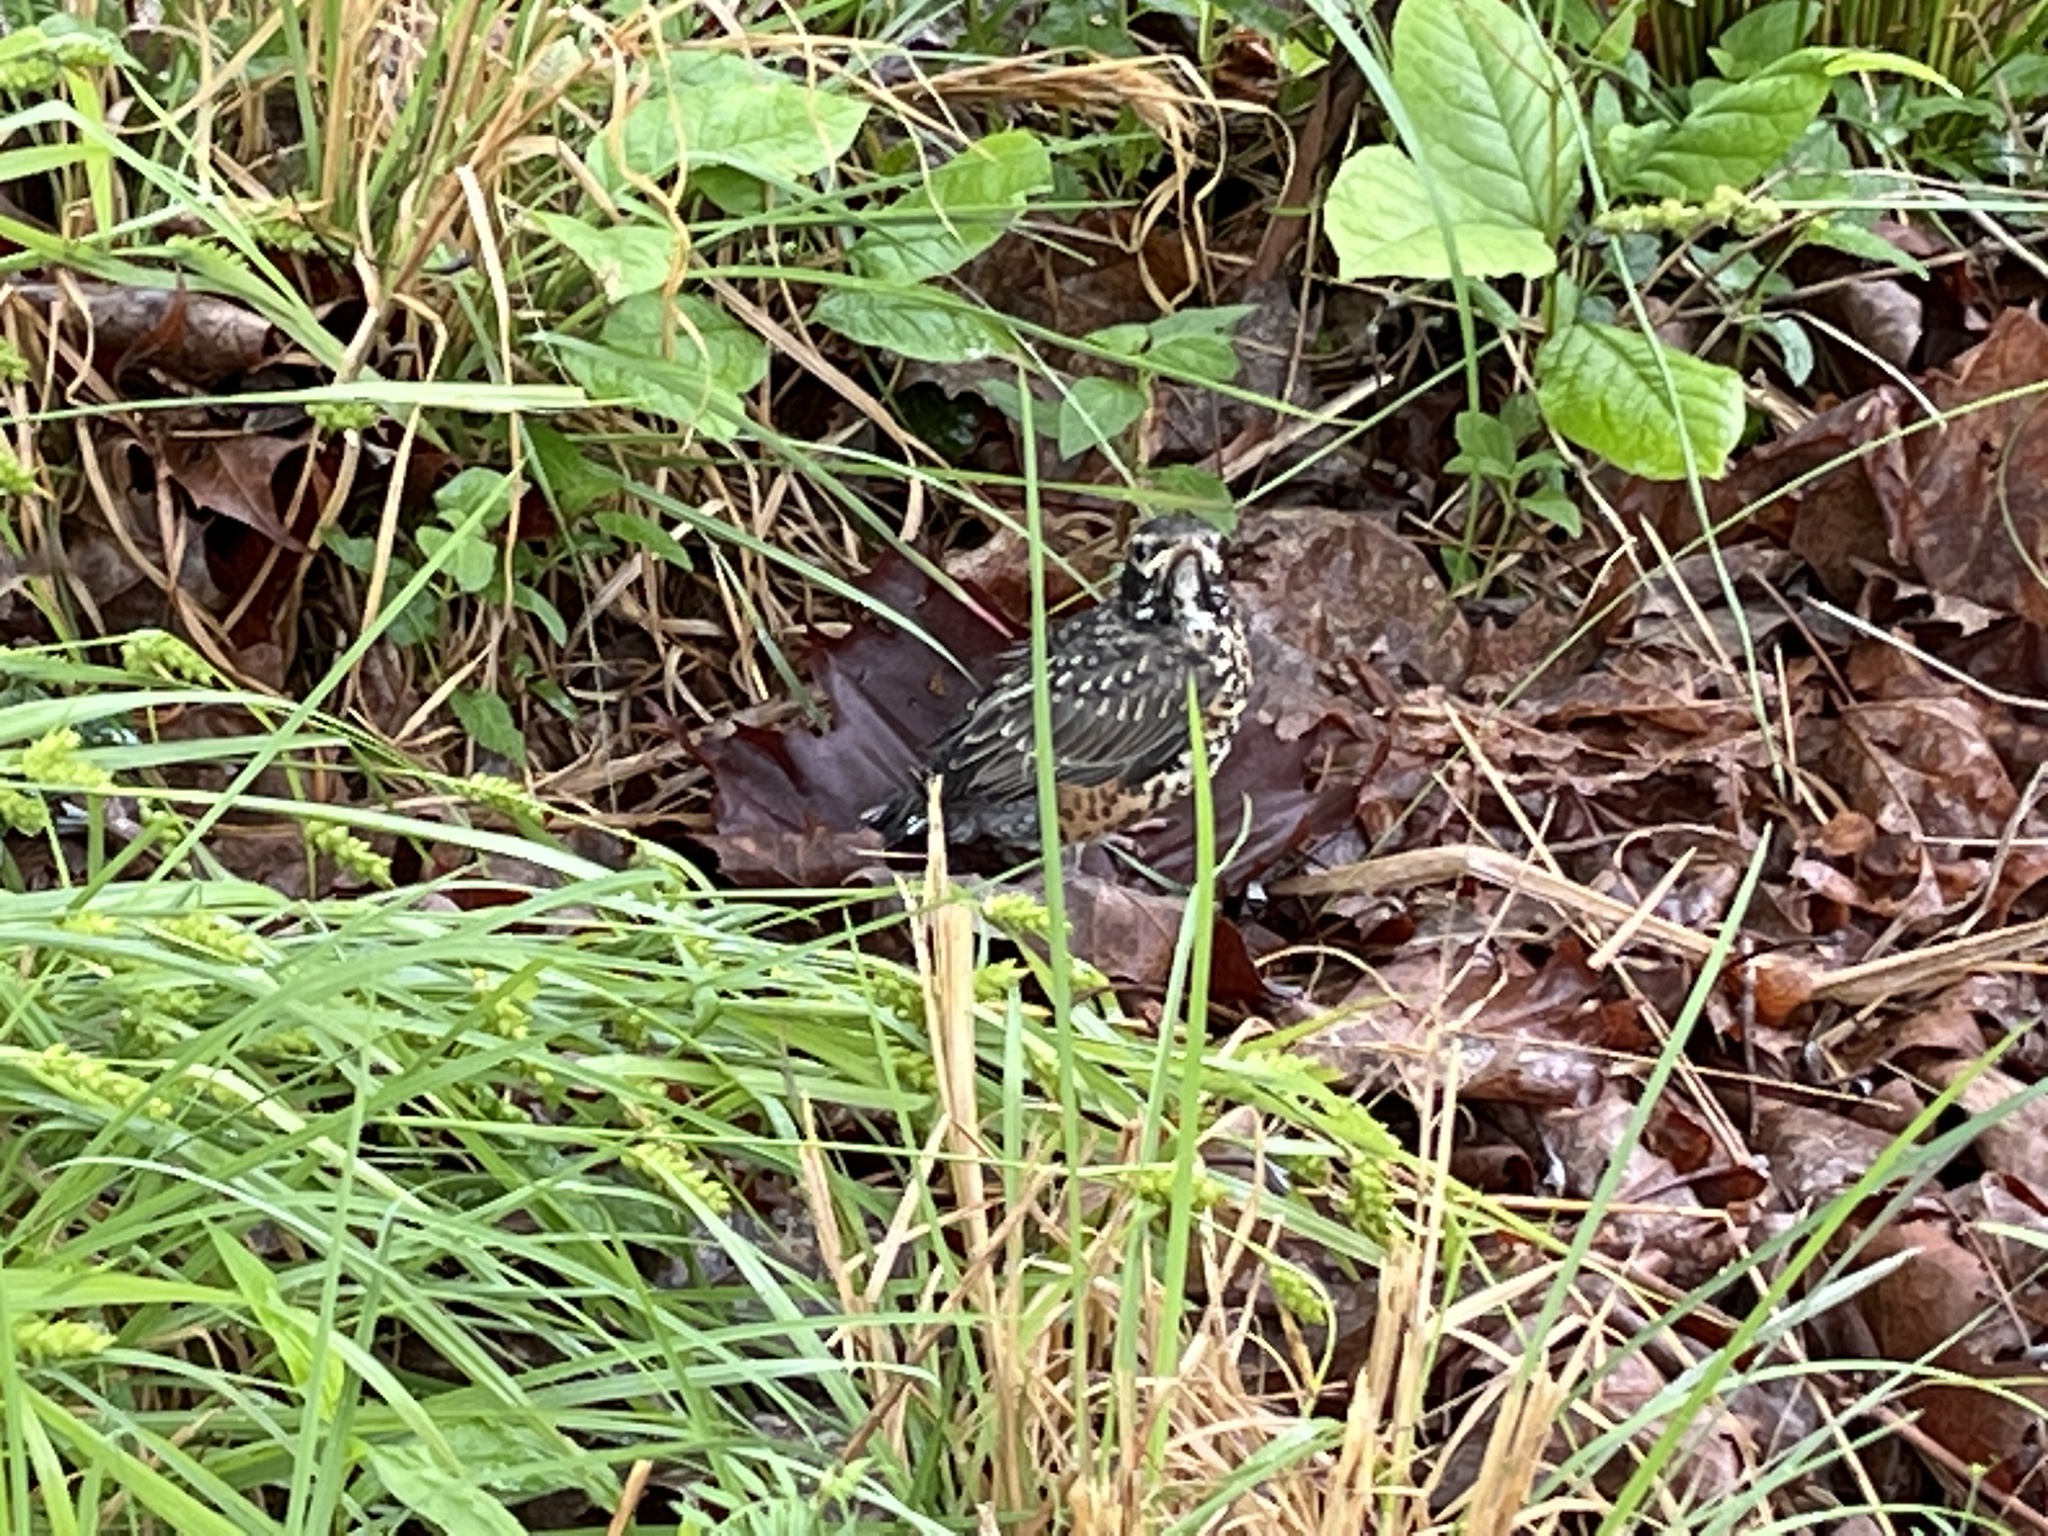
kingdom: Animalia
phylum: Chordata
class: Aves
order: Passeriformes
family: Turdidae
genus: Turdus
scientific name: Turdus migratorius
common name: American robin
